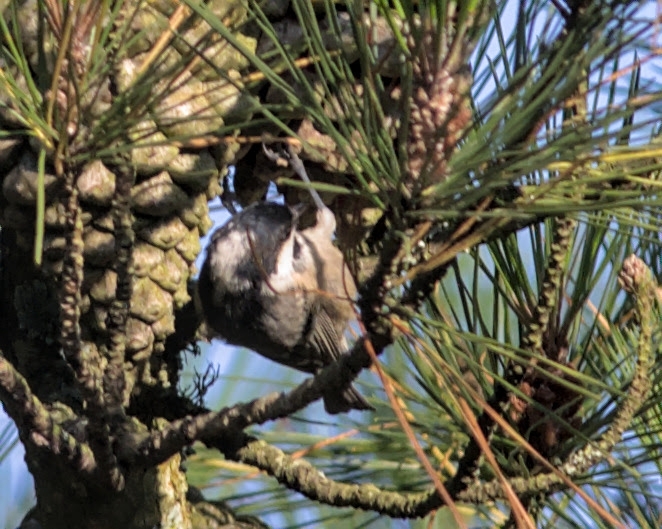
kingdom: Animalia
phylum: Chordata
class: Aves
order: Passeriformes
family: Paridae
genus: Periparus
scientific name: Periparus ater
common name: Coal tit
